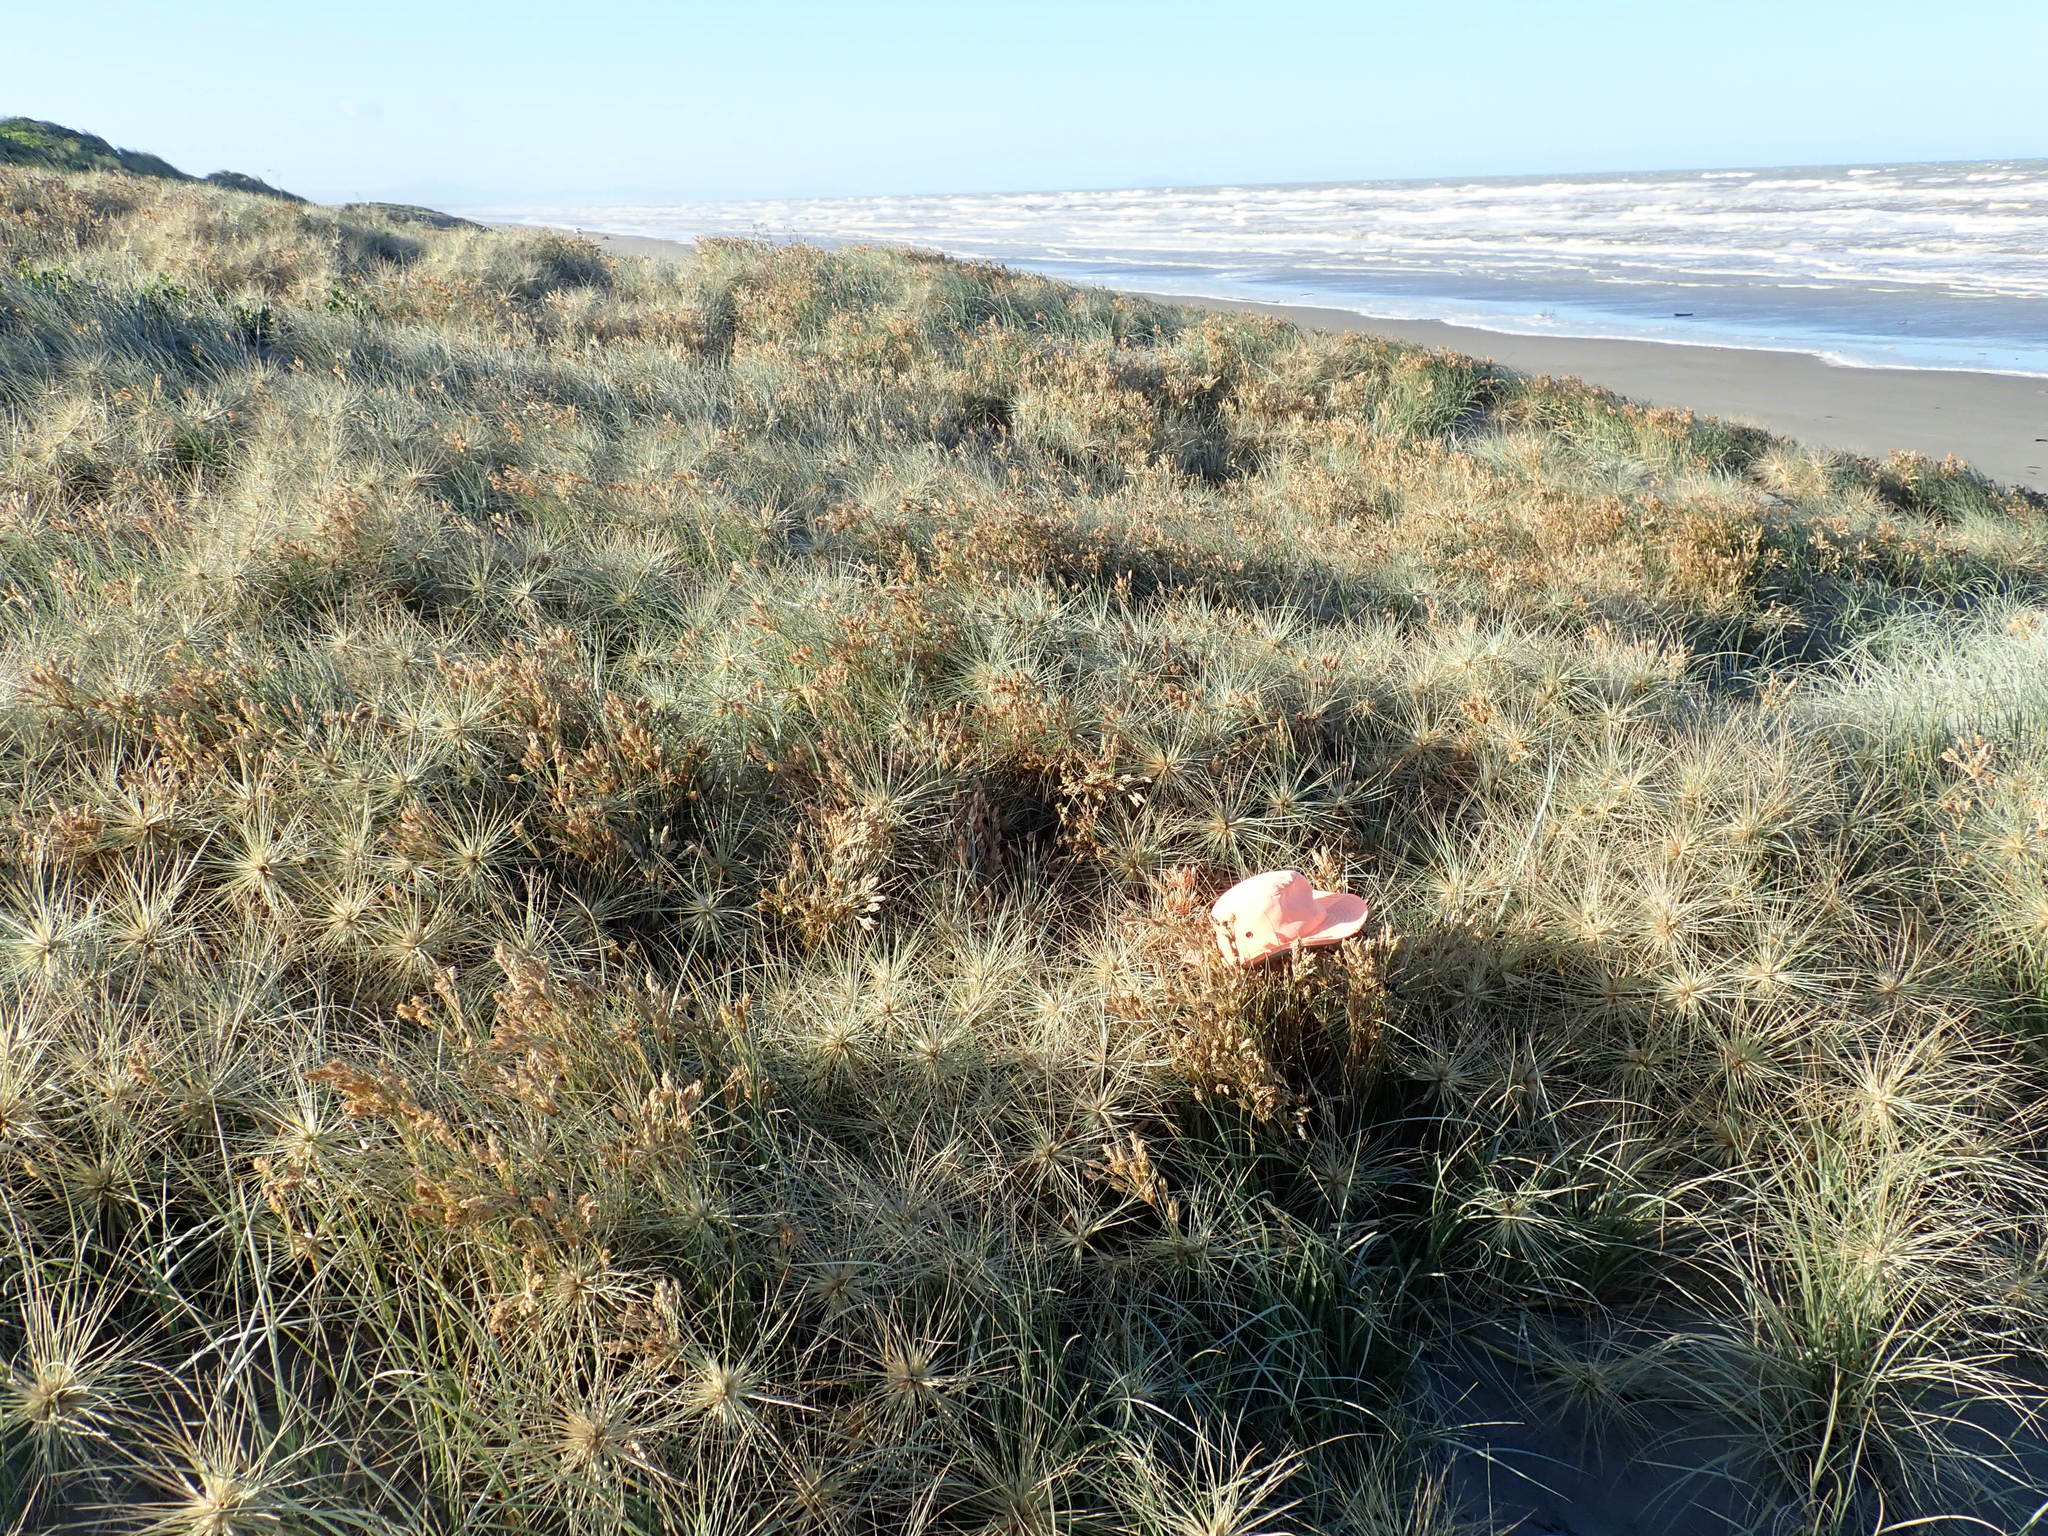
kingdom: Animalia
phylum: Arthropoda
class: Insecta
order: Coleoptera
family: Coccinellidae
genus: Coccinella
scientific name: Coccinella undecimpunctata
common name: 11-spot ladybird
